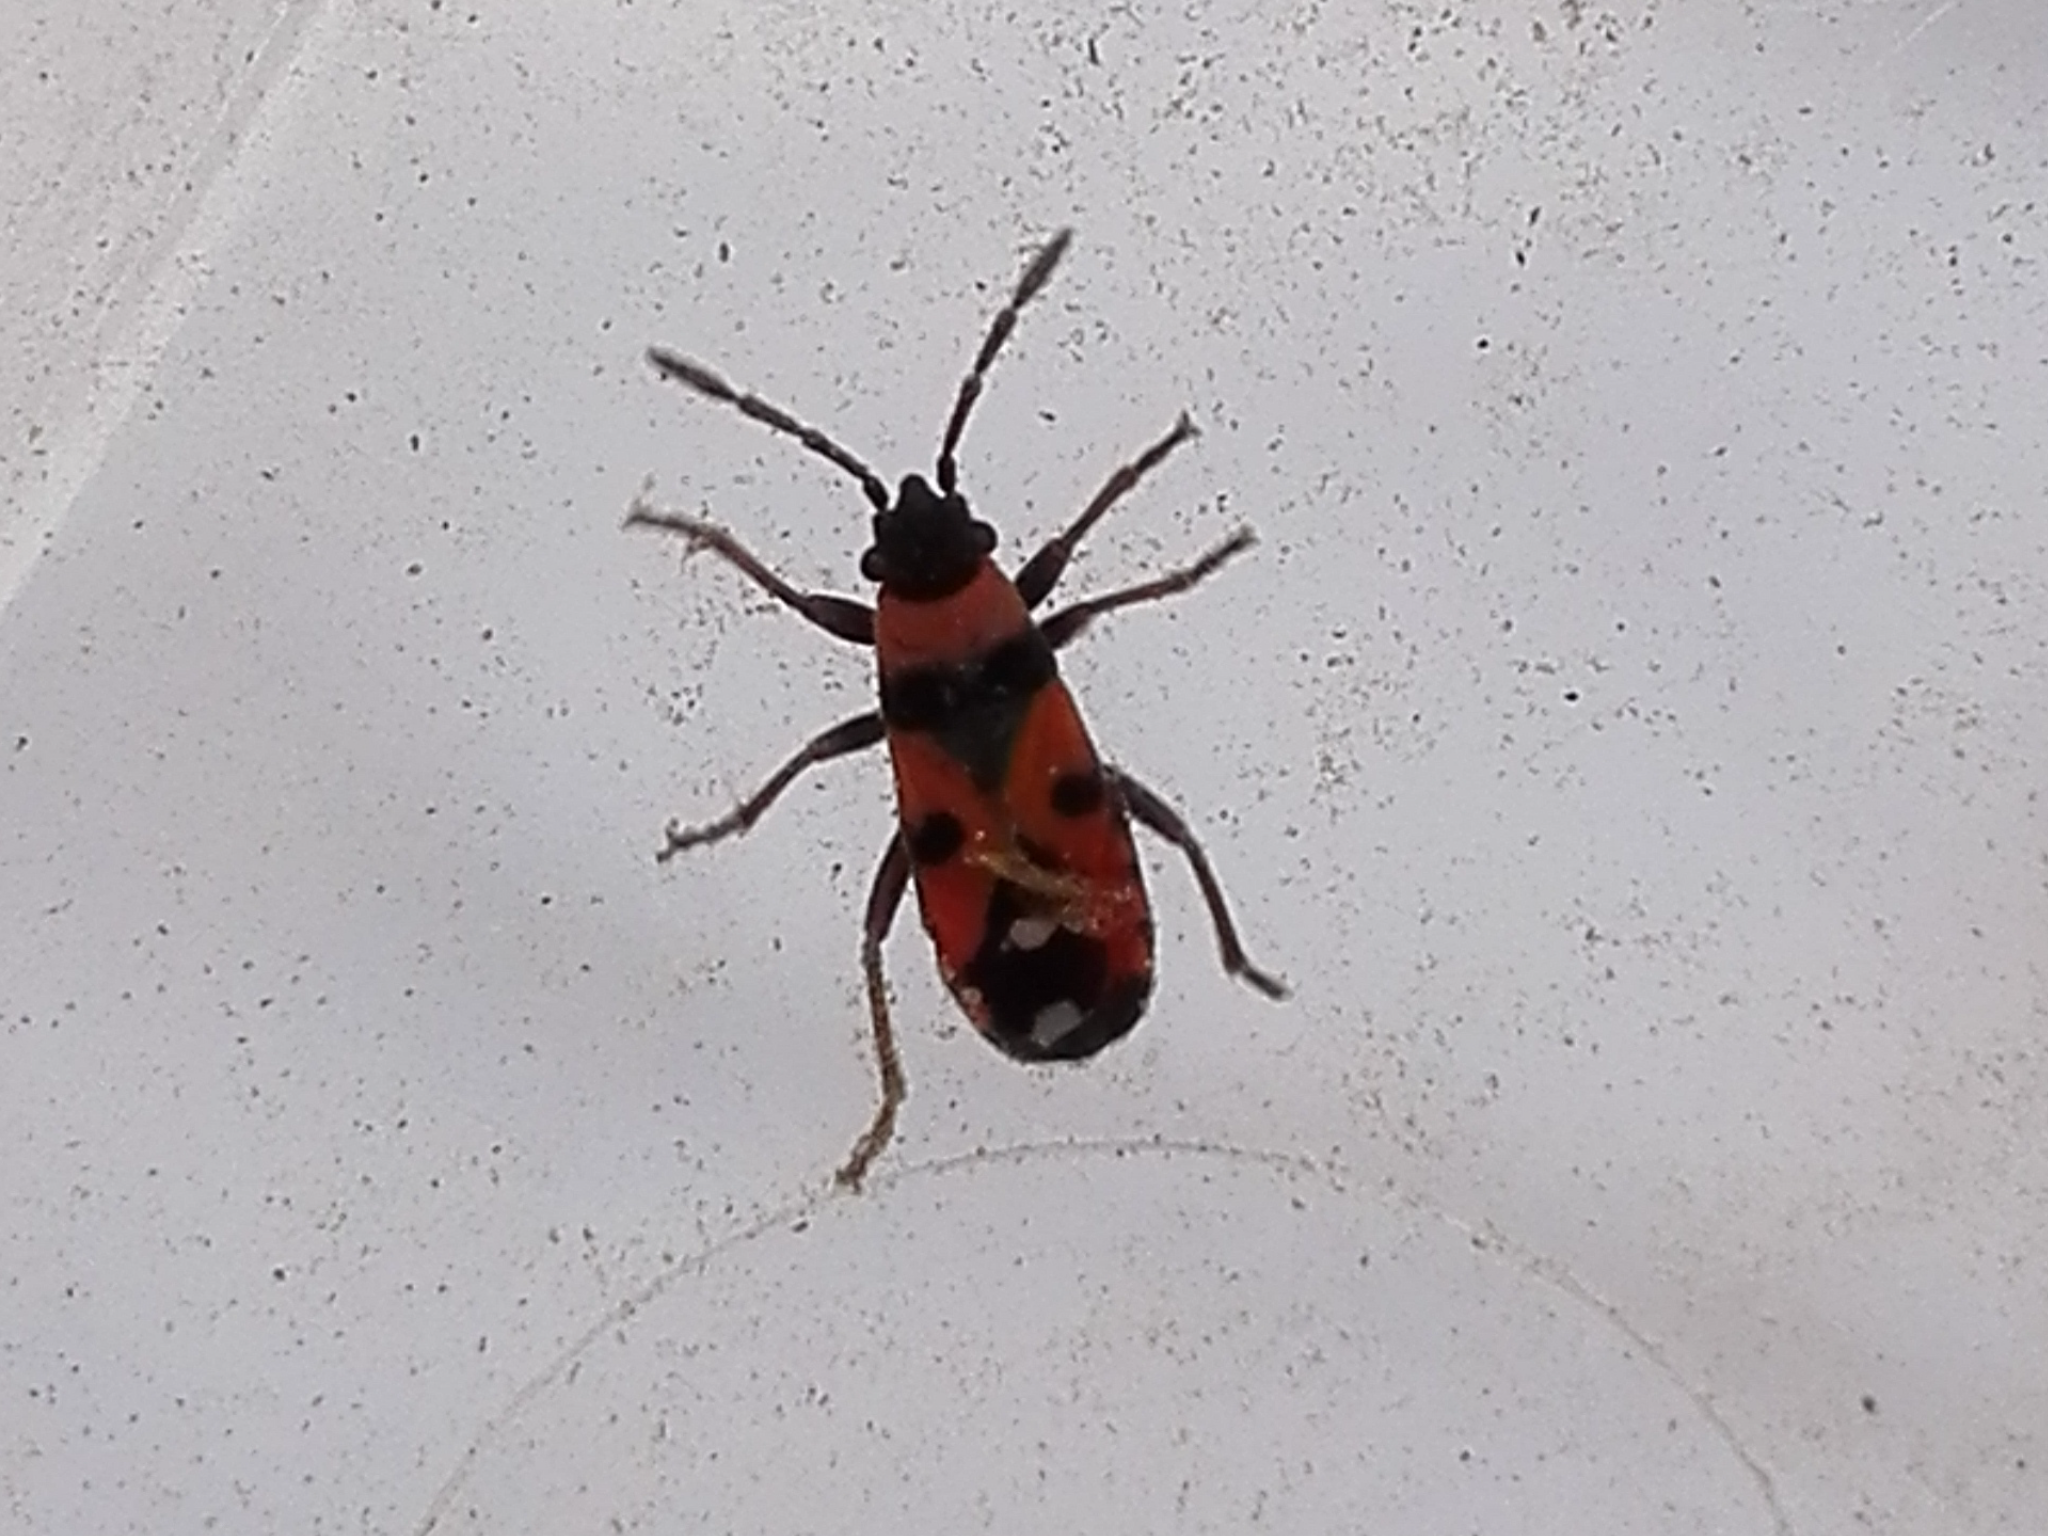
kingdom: Animalia
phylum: Arthropoda
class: Insecta
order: Hemiptera
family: Lygaeidae
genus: Horvathiolus
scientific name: Horvathiolus superbus
